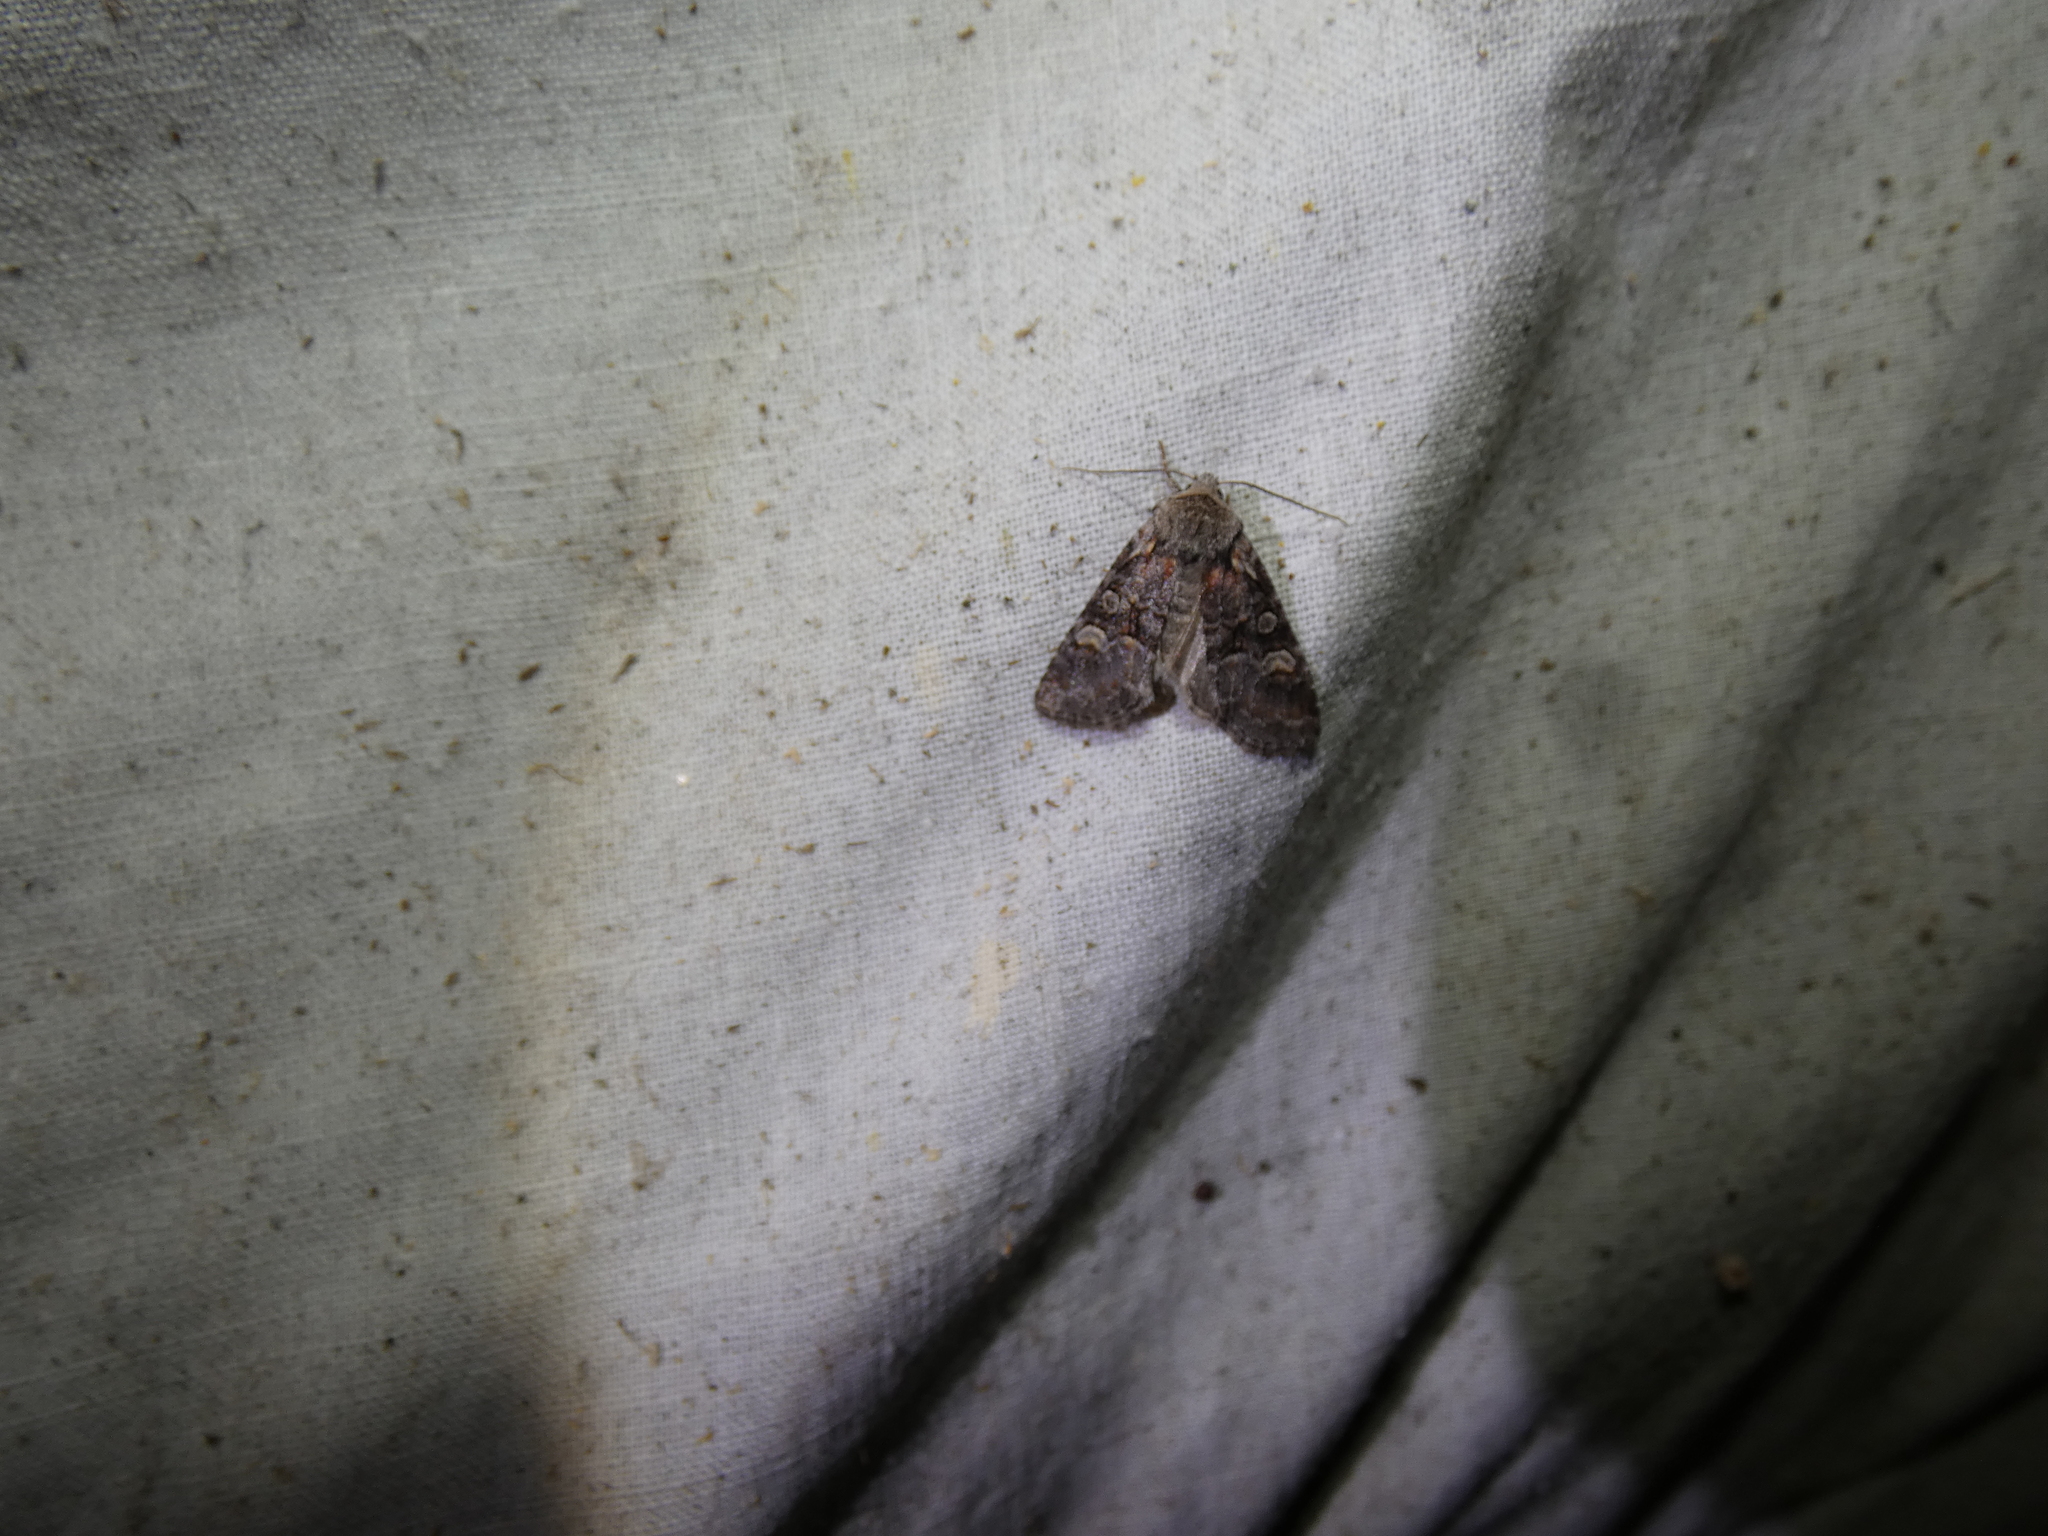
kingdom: Animalia
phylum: Arthropoda
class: Insecta
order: Lepidoptera
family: Noctuidae
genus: Brachylomia
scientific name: Brachylomia viminalis
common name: Minor shoulder-knot
